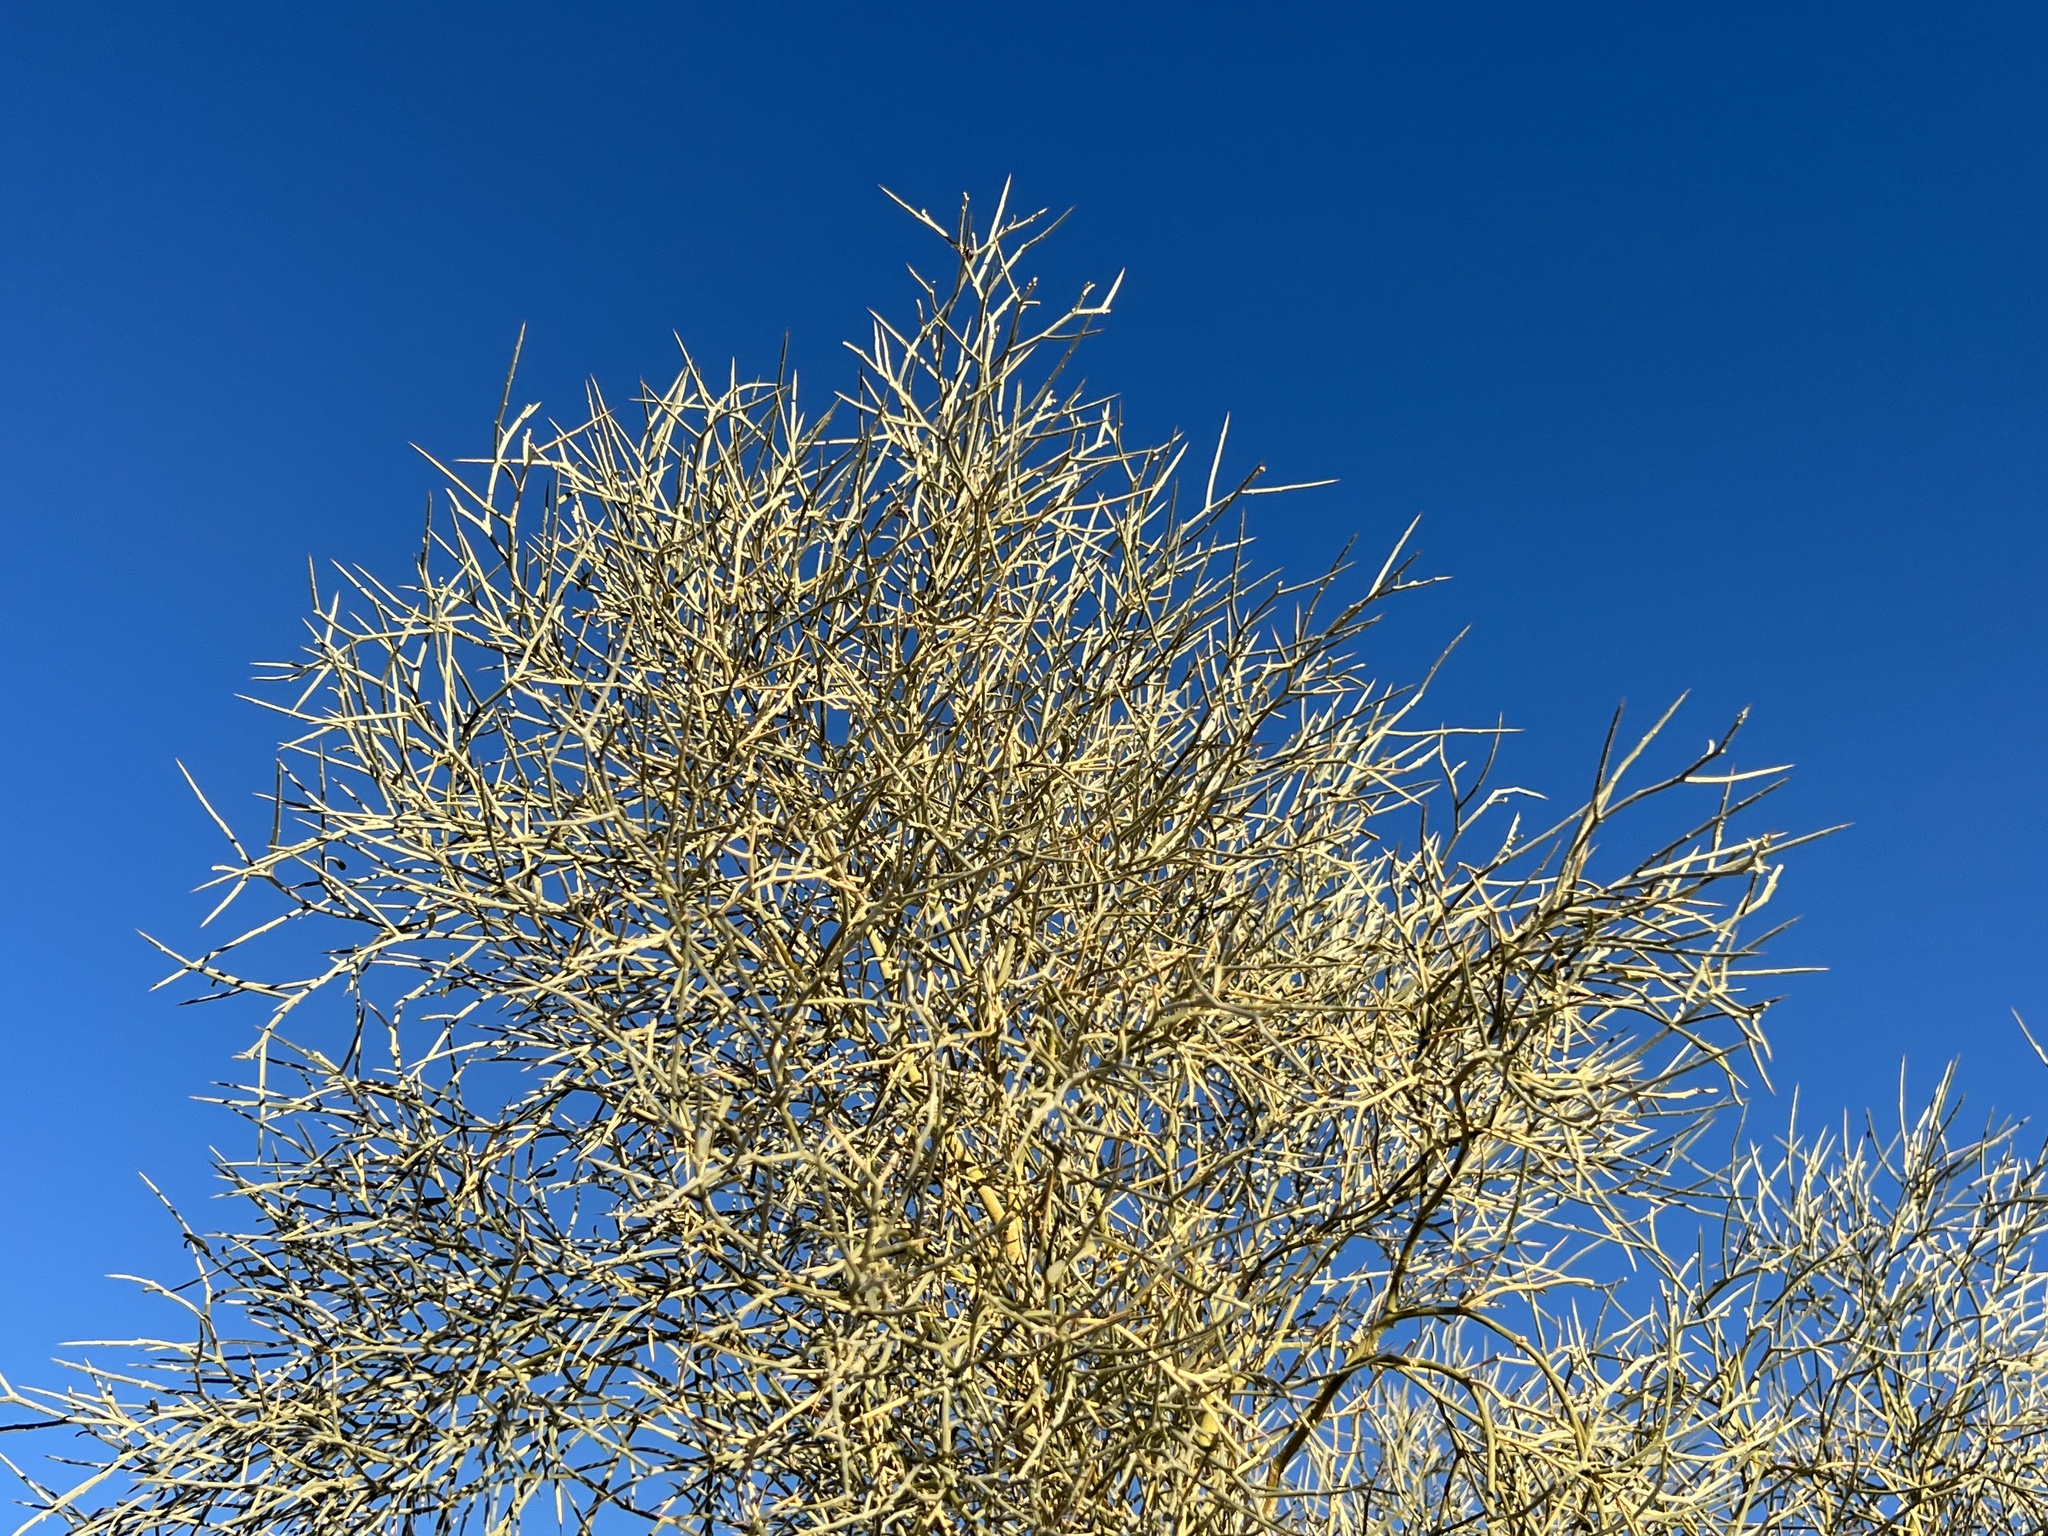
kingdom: Plantae
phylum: Tracheophyta
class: Magnoliopsida
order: Fabales
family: Fabaceae
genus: Psorothamnus
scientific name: Psorothamnus spinosus
